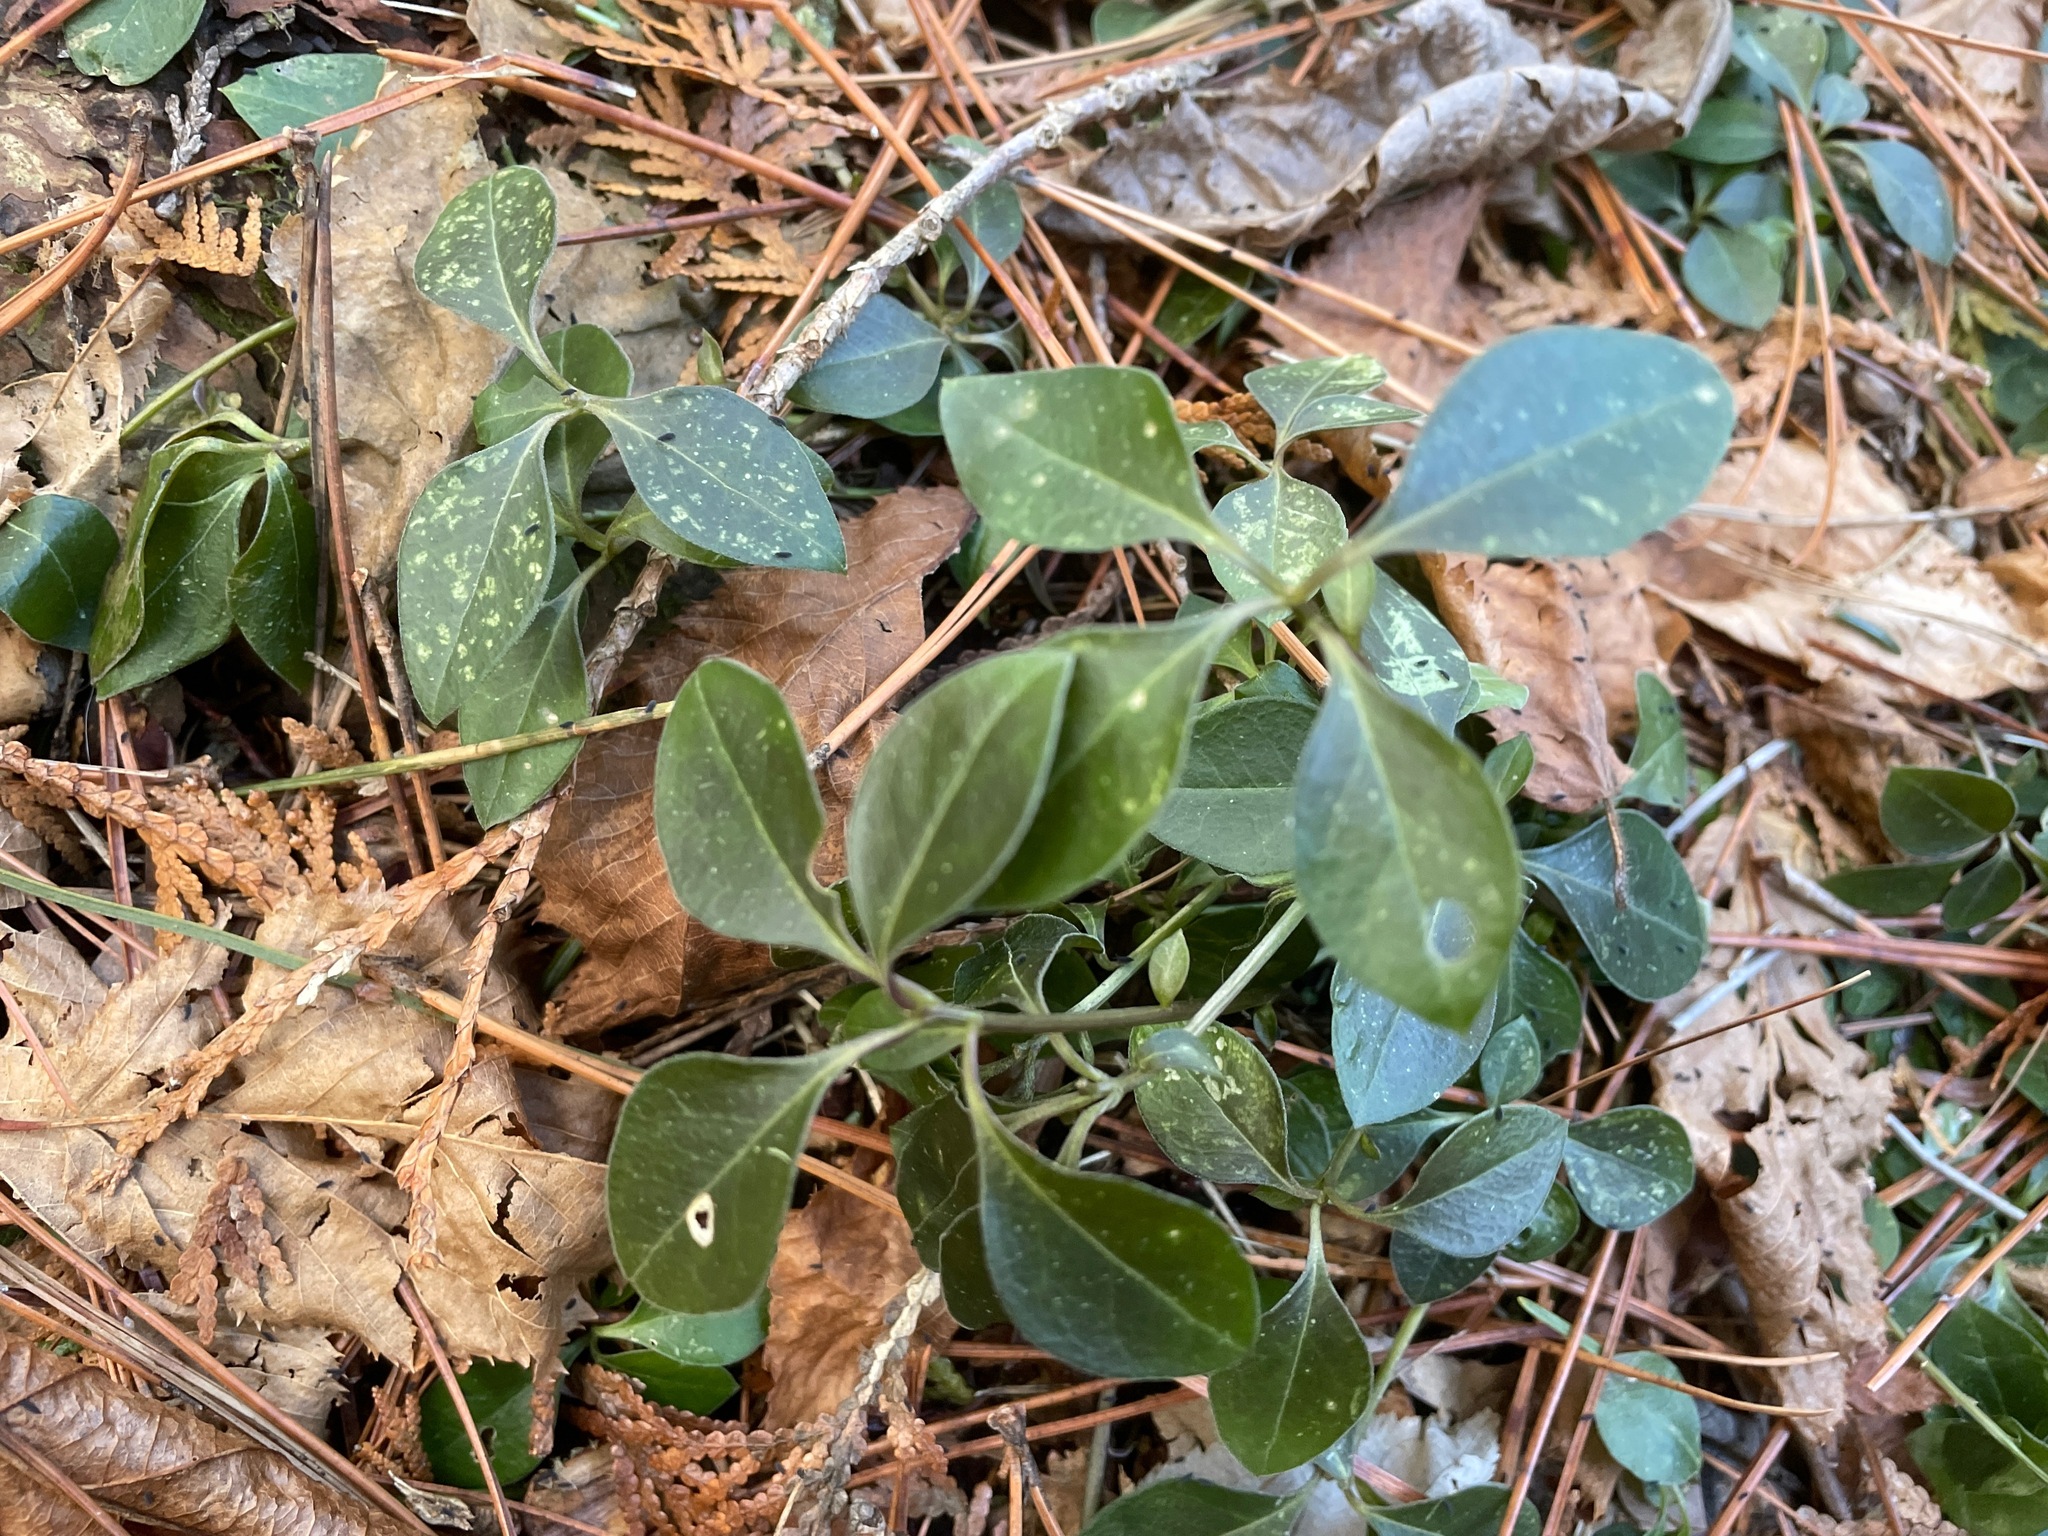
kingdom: Plantae
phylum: Tracheophyta
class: Magnoliopsida
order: Fabales
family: Polygalaceae
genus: Polygaloides
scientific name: Polygaloides paucifolia
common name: Bird-on-the-wing
